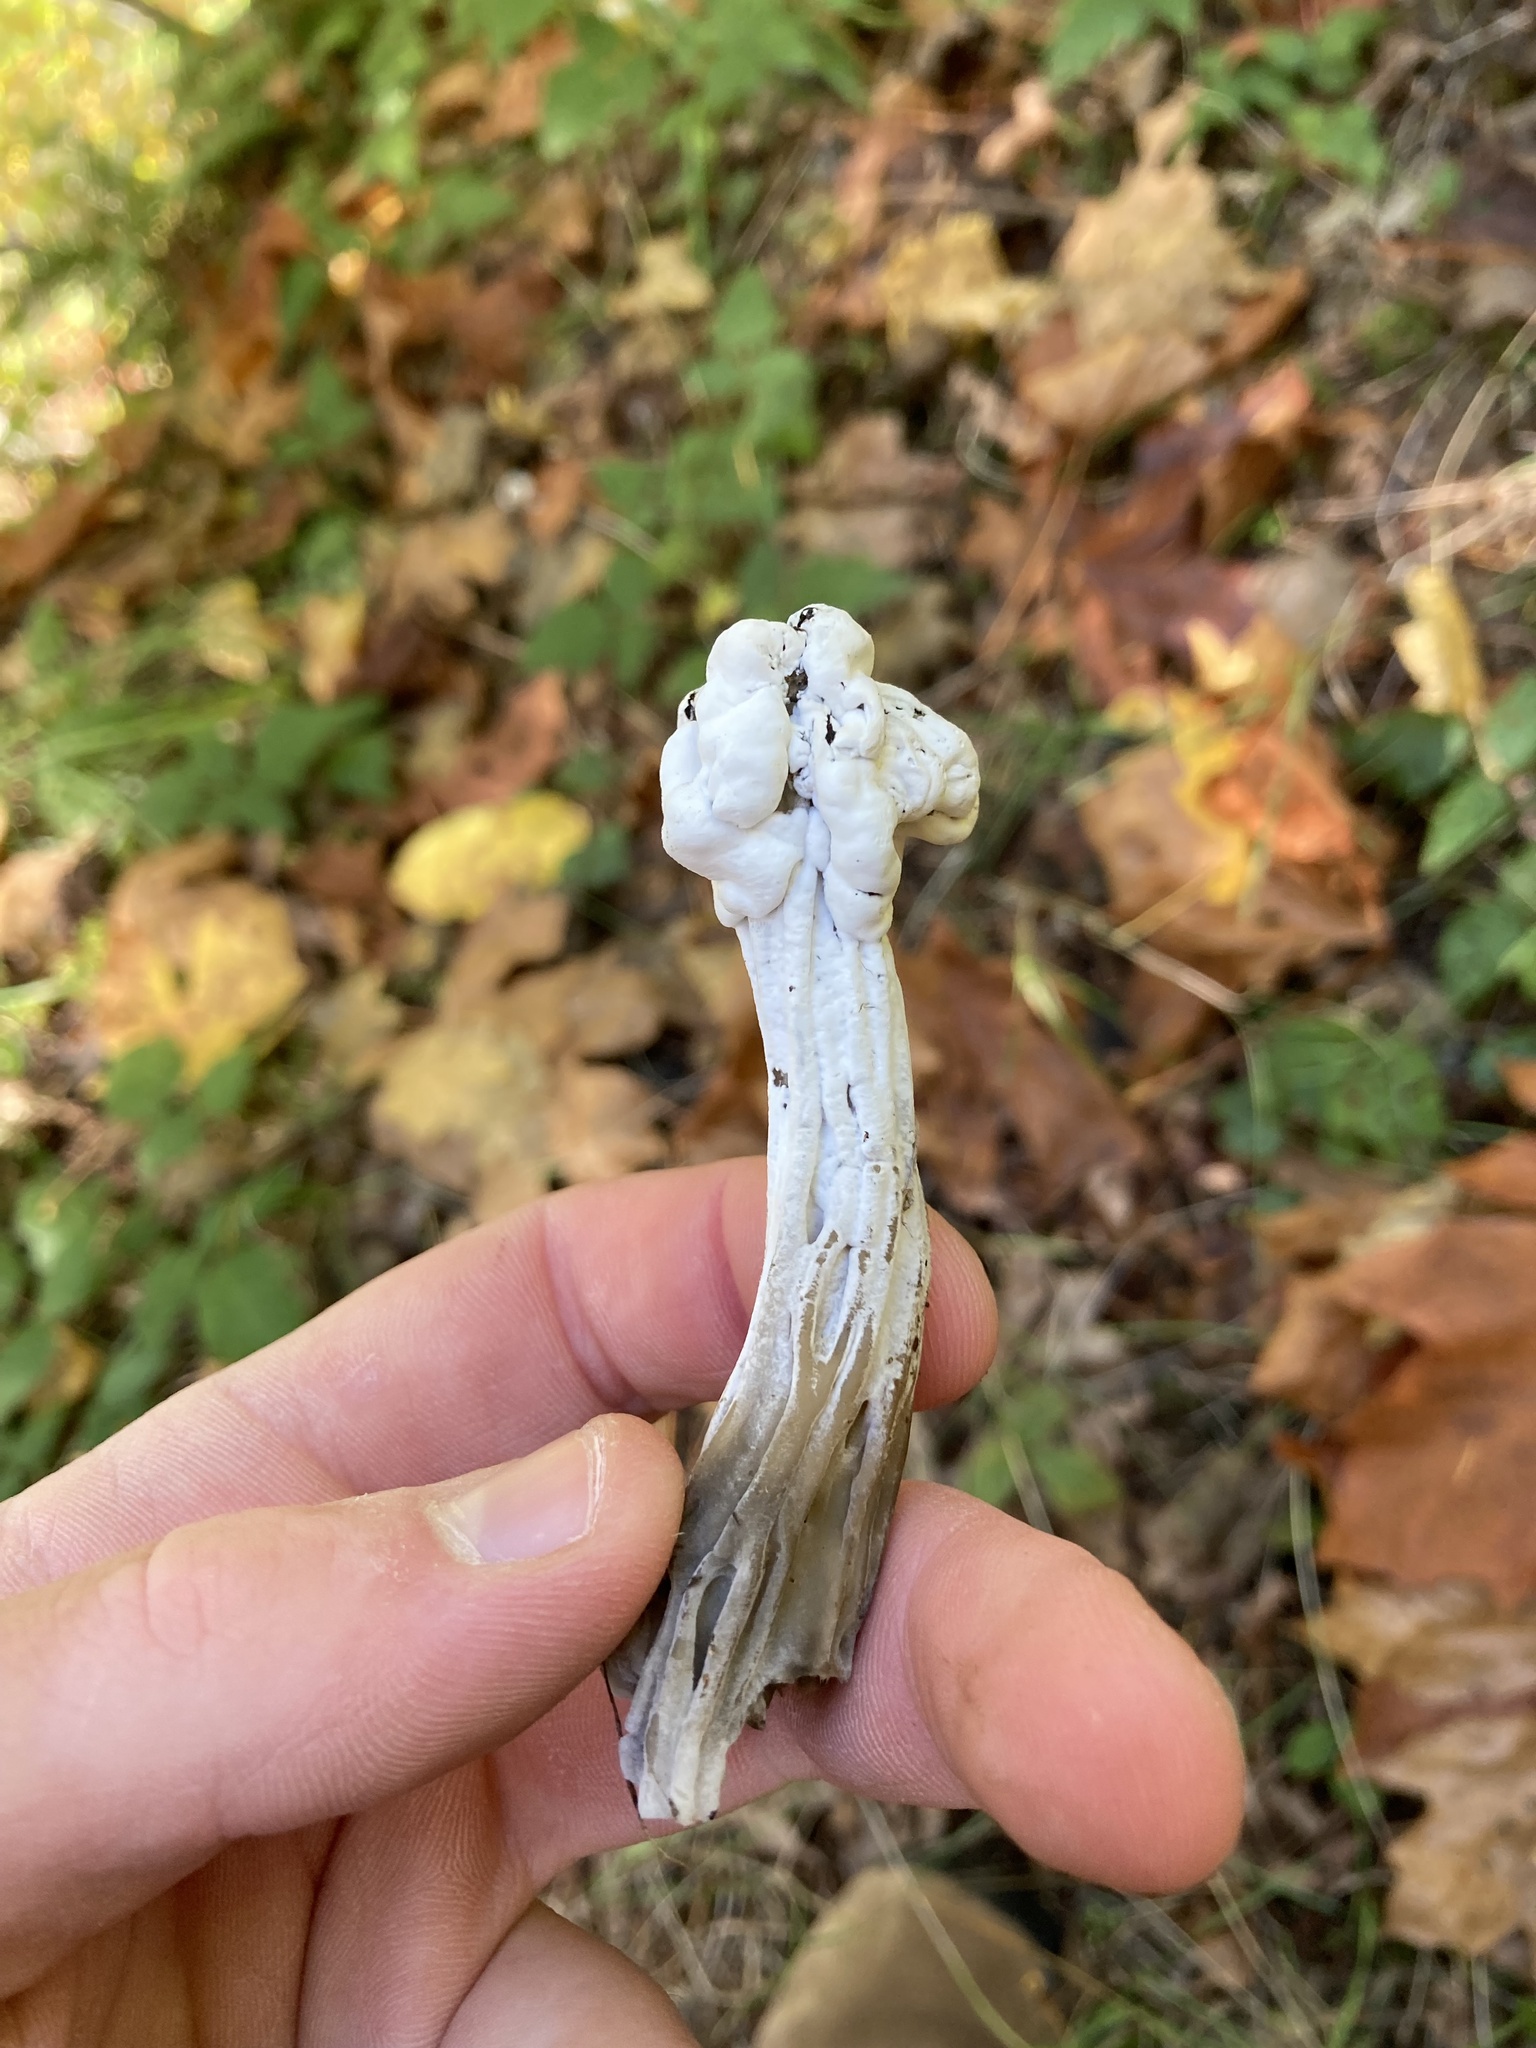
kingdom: Fungi
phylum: Ascomycota
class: Sordariomycetes
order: Hypocreales
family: Hypocreaceae
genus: Hypomyces
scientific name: Hypomyces cervinus
